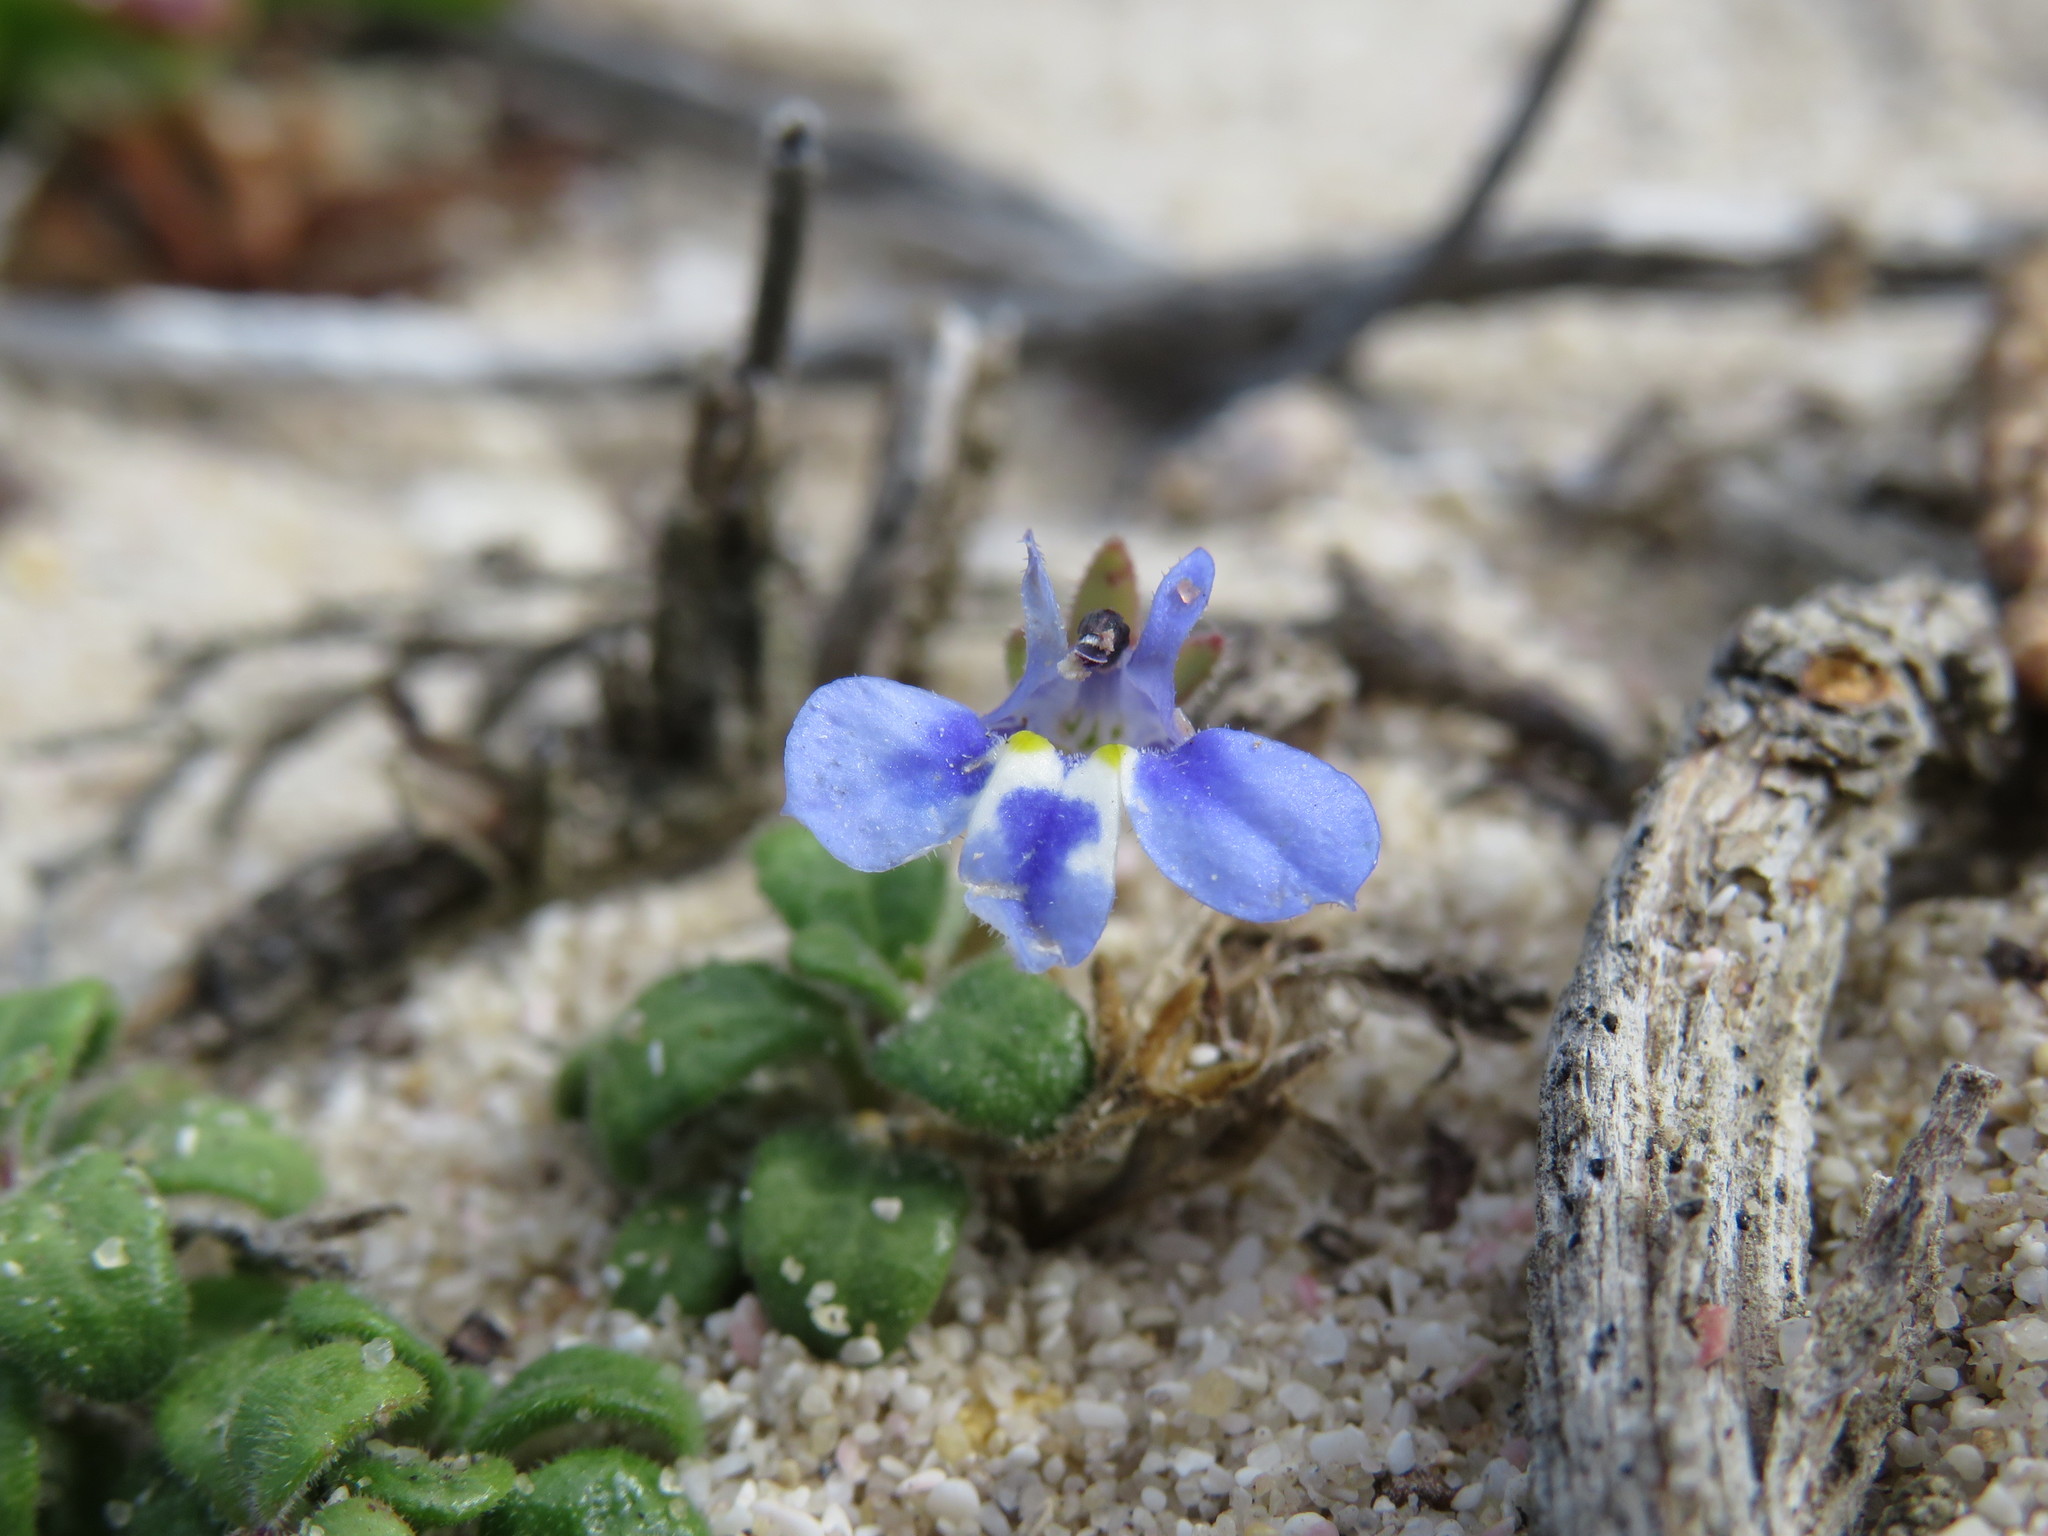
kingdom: Plantae
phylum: Tracheophyta
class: Magnoliopsida
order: Asterales
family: Campanulaceae
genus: Lobelia
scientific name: Lobelia boivinii
